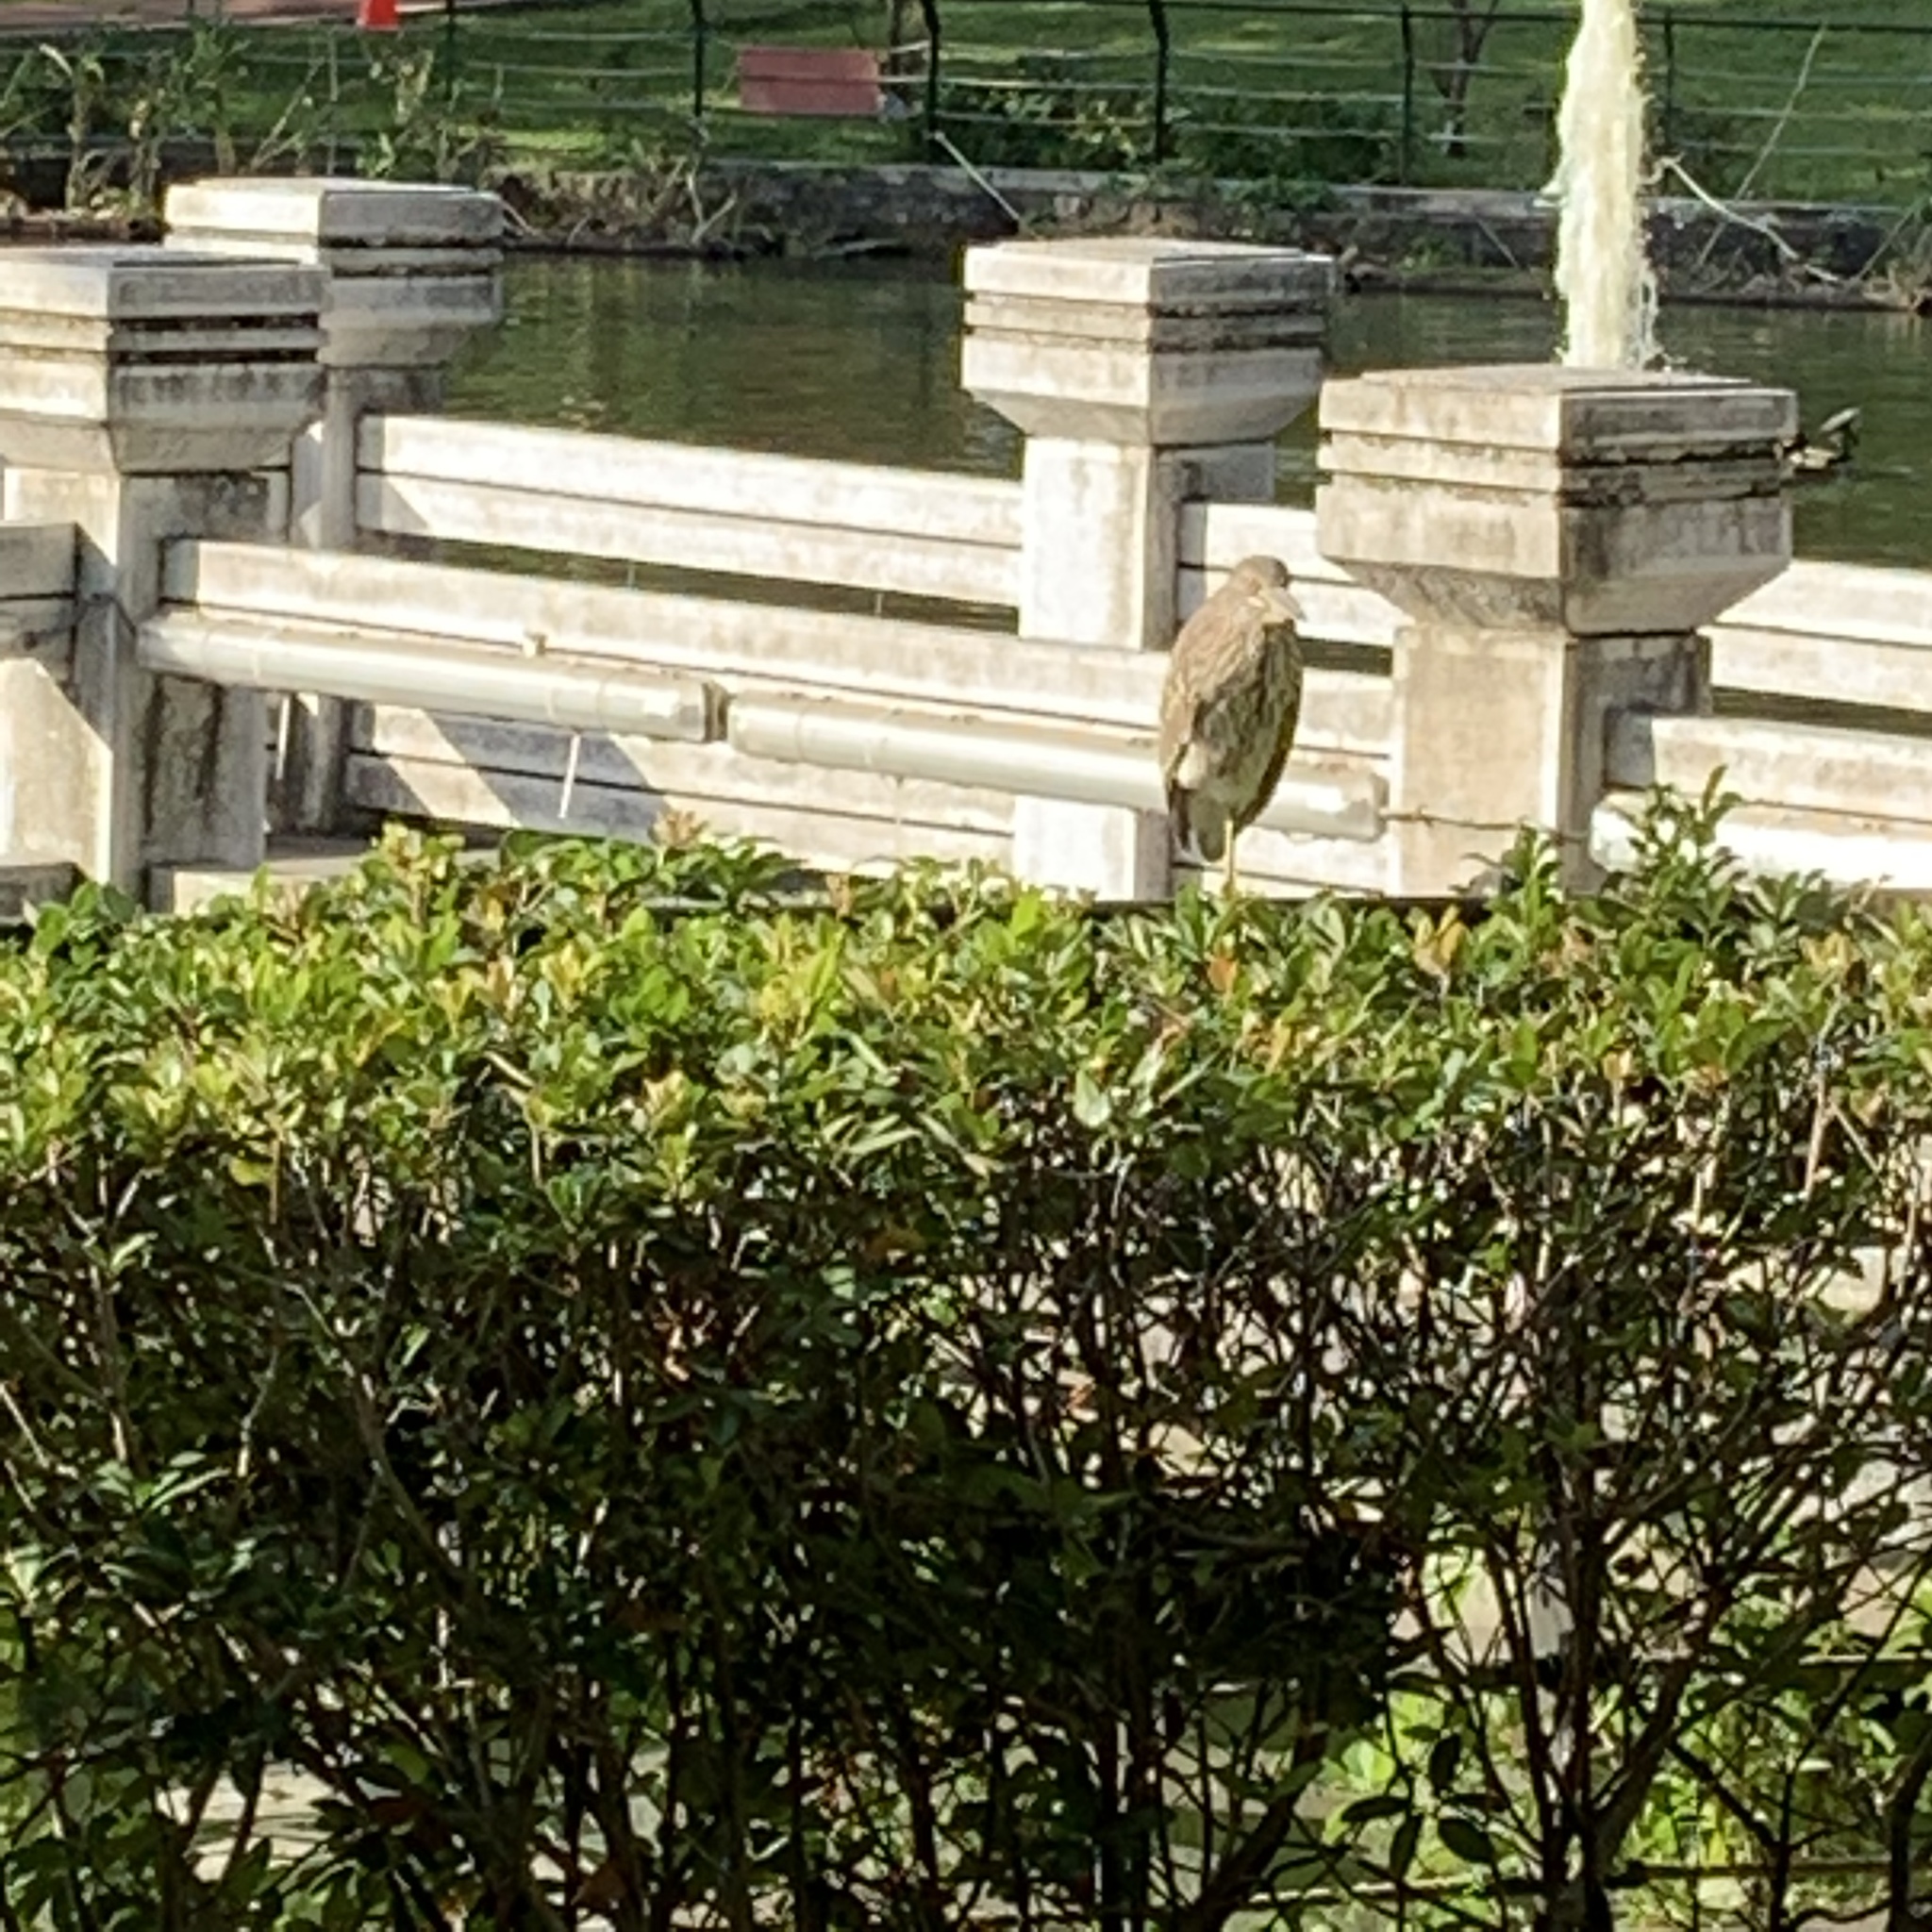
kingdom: Animalia
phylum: Chordata
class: Aves
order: Pelecaniformes
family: Ardeidae
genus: Nycticorax
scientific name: Nycticorax nycticorax
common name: Black-crowned night heron
